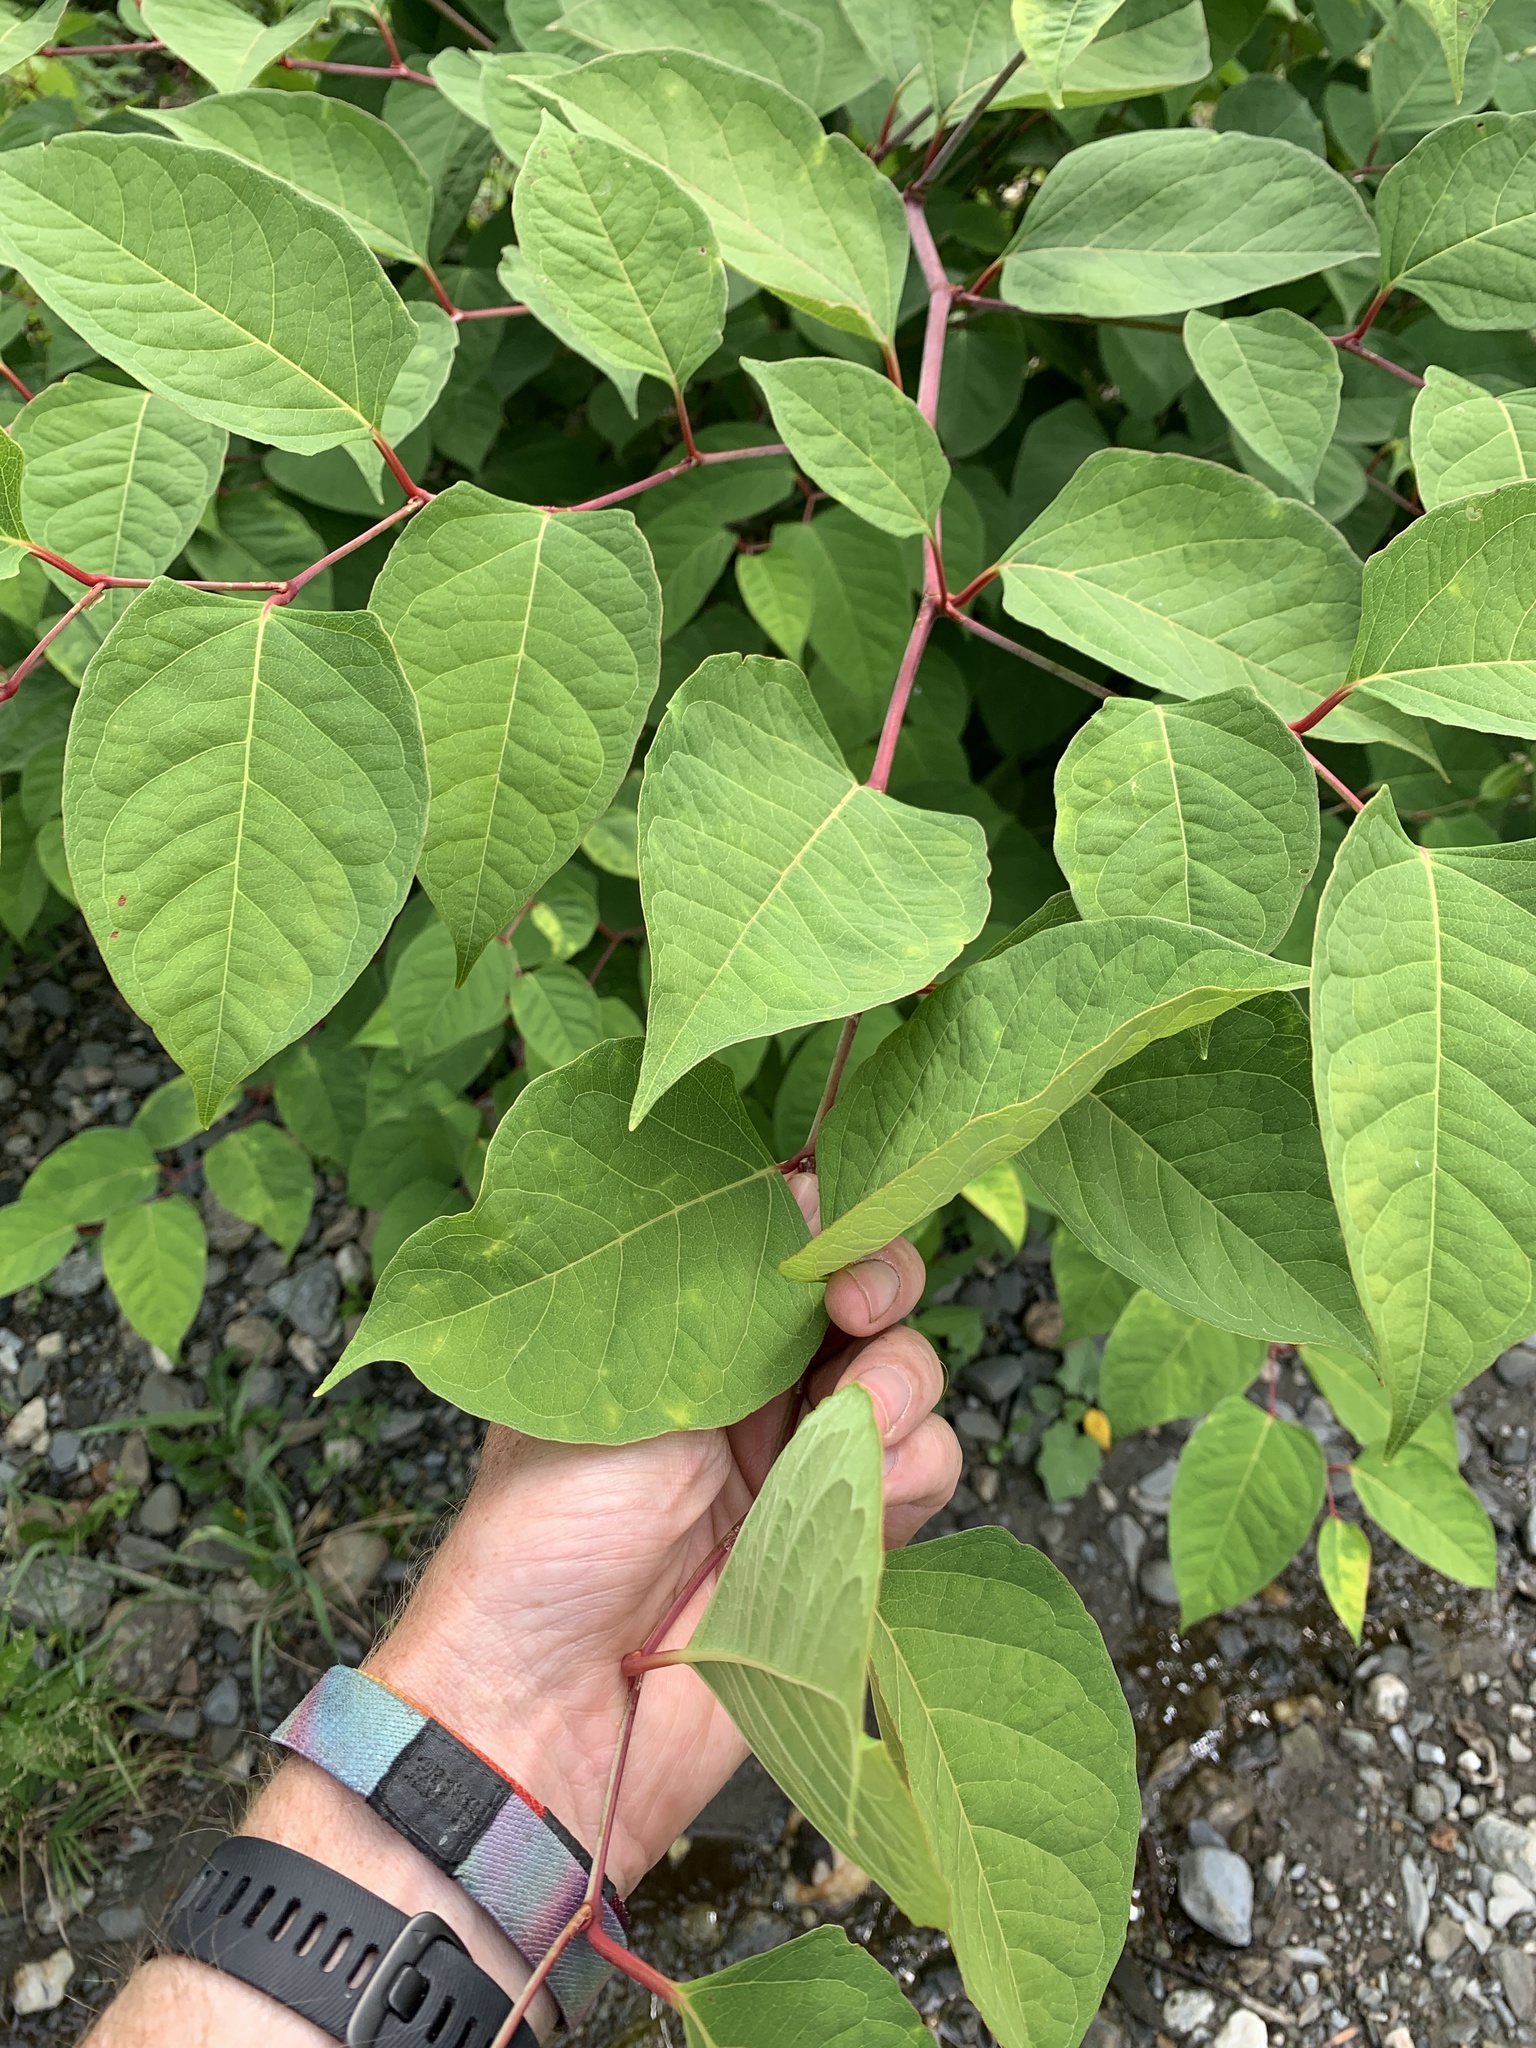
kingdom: Plantae
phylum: Tracheophyta
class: Magnoliopsida
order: Caryophyllales
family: Polygonaceae
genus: Reynoutria
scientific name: Reynoutria japonica
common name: Japanese knotweed
